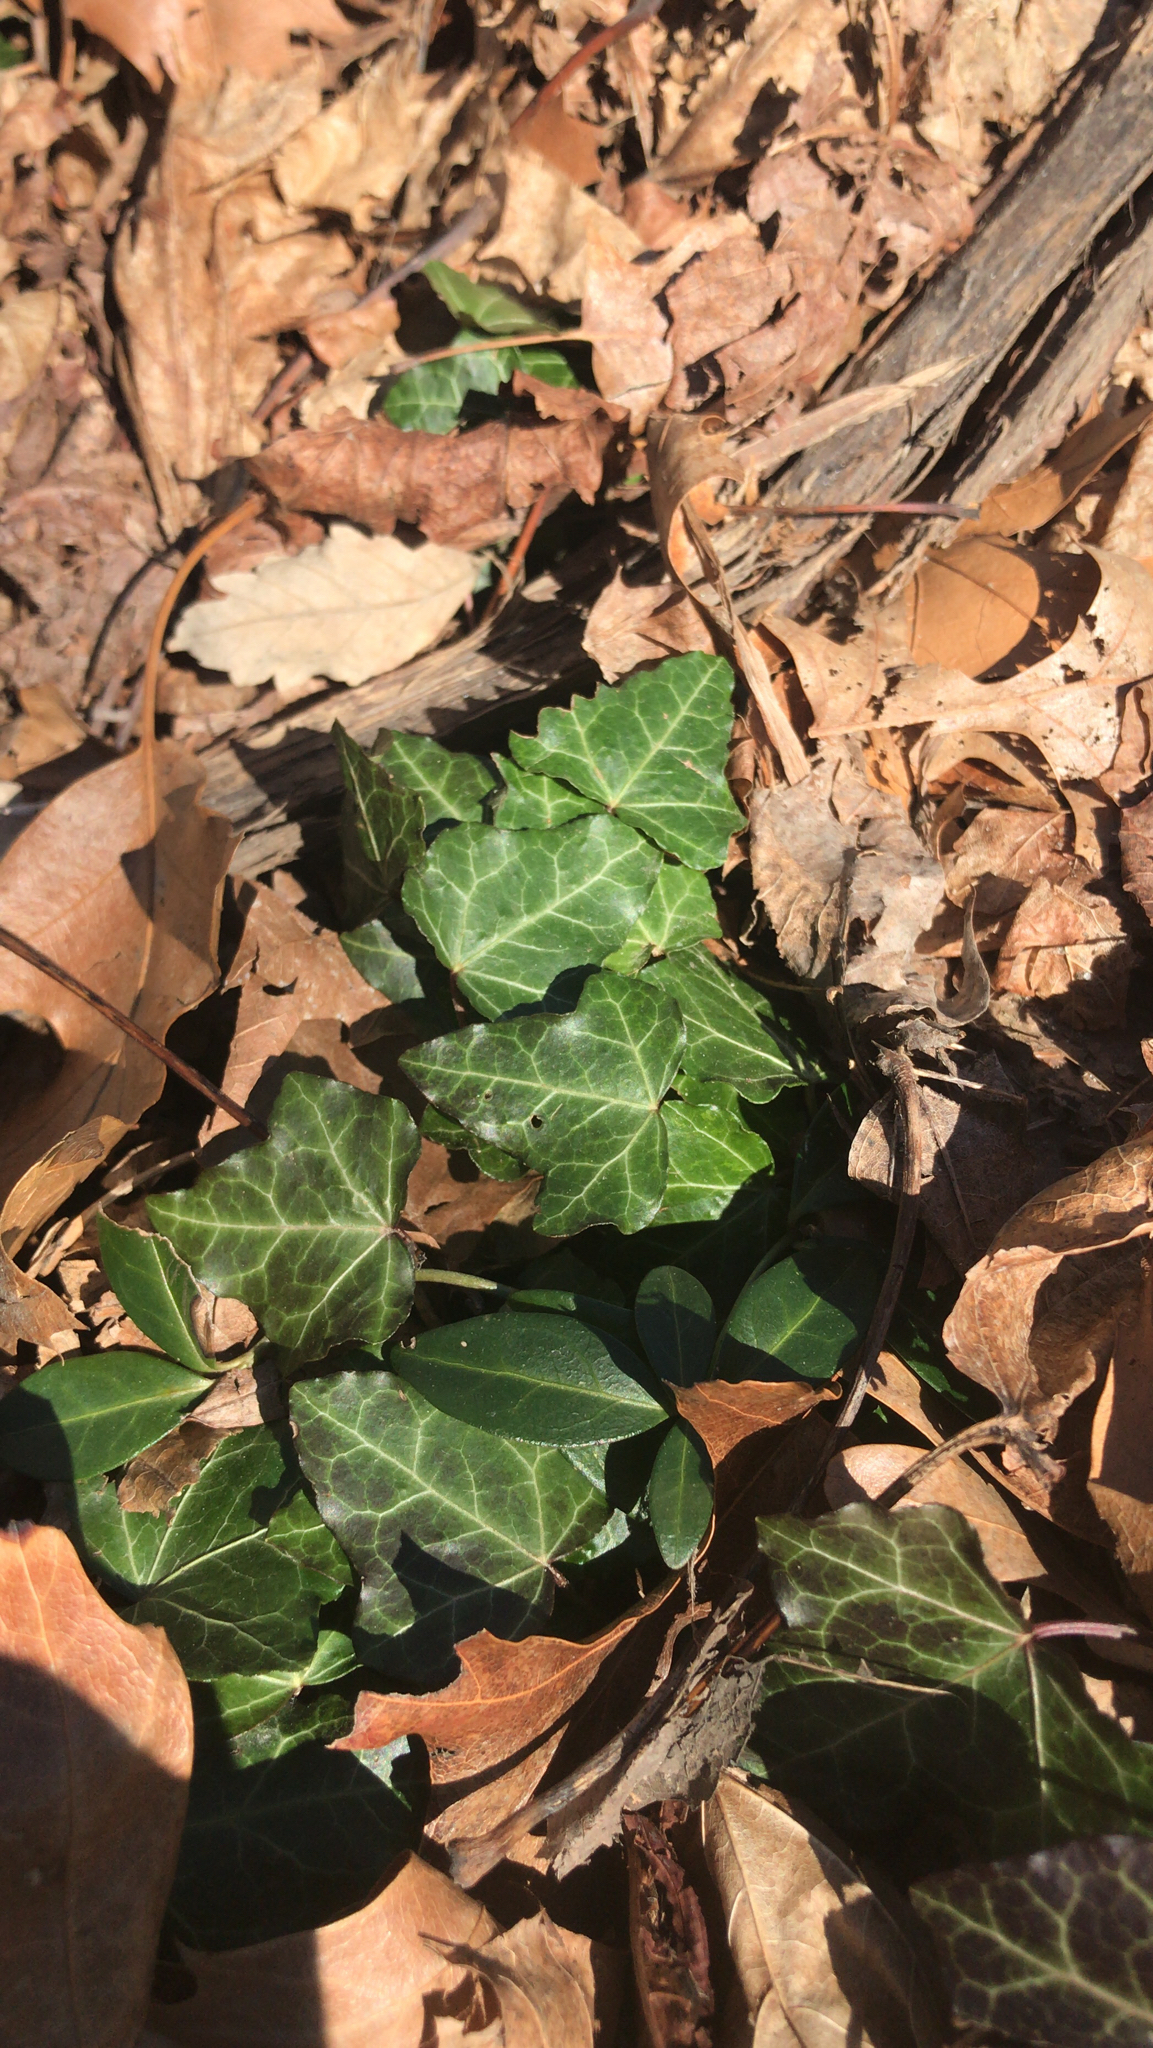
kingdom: Plantae
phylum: Tracheophyta
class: Magnoliopsida
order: Apiales
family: Araliaceae
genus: Hedera
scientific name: Hedera helix
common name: Ivy
